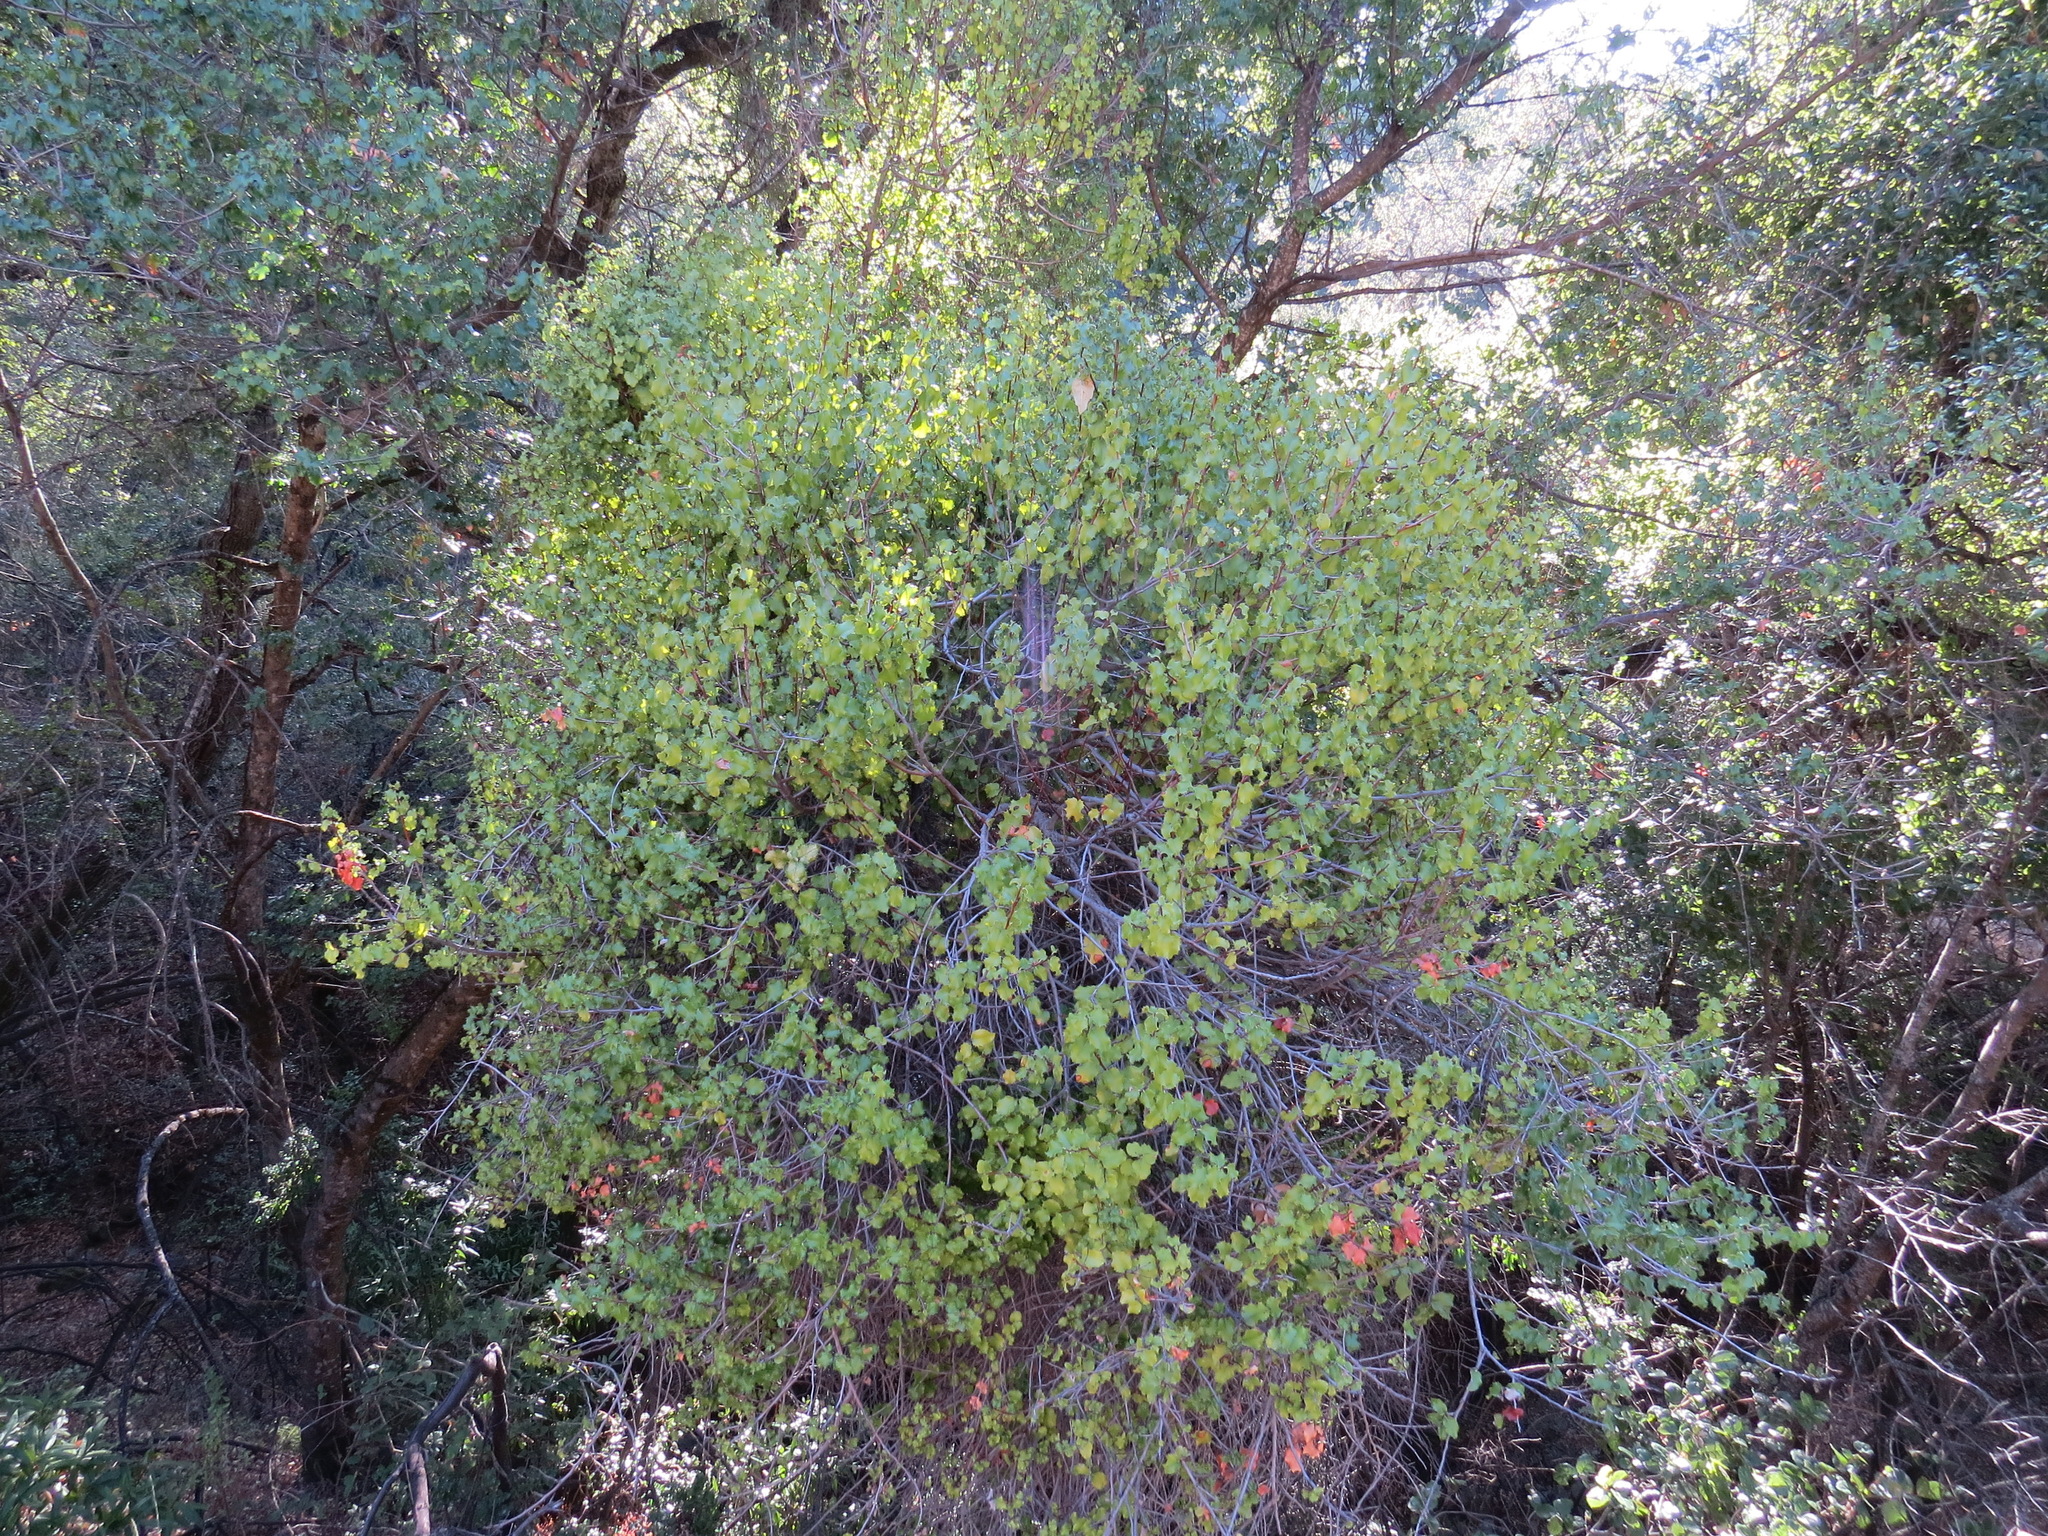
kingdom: Plantae
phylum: Tracheophyta
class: Magnoliopsida
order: Rosales
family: Rosaceae
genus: Prunus
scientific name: Prunus ilicifolia
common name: Hollyleaf cherry
